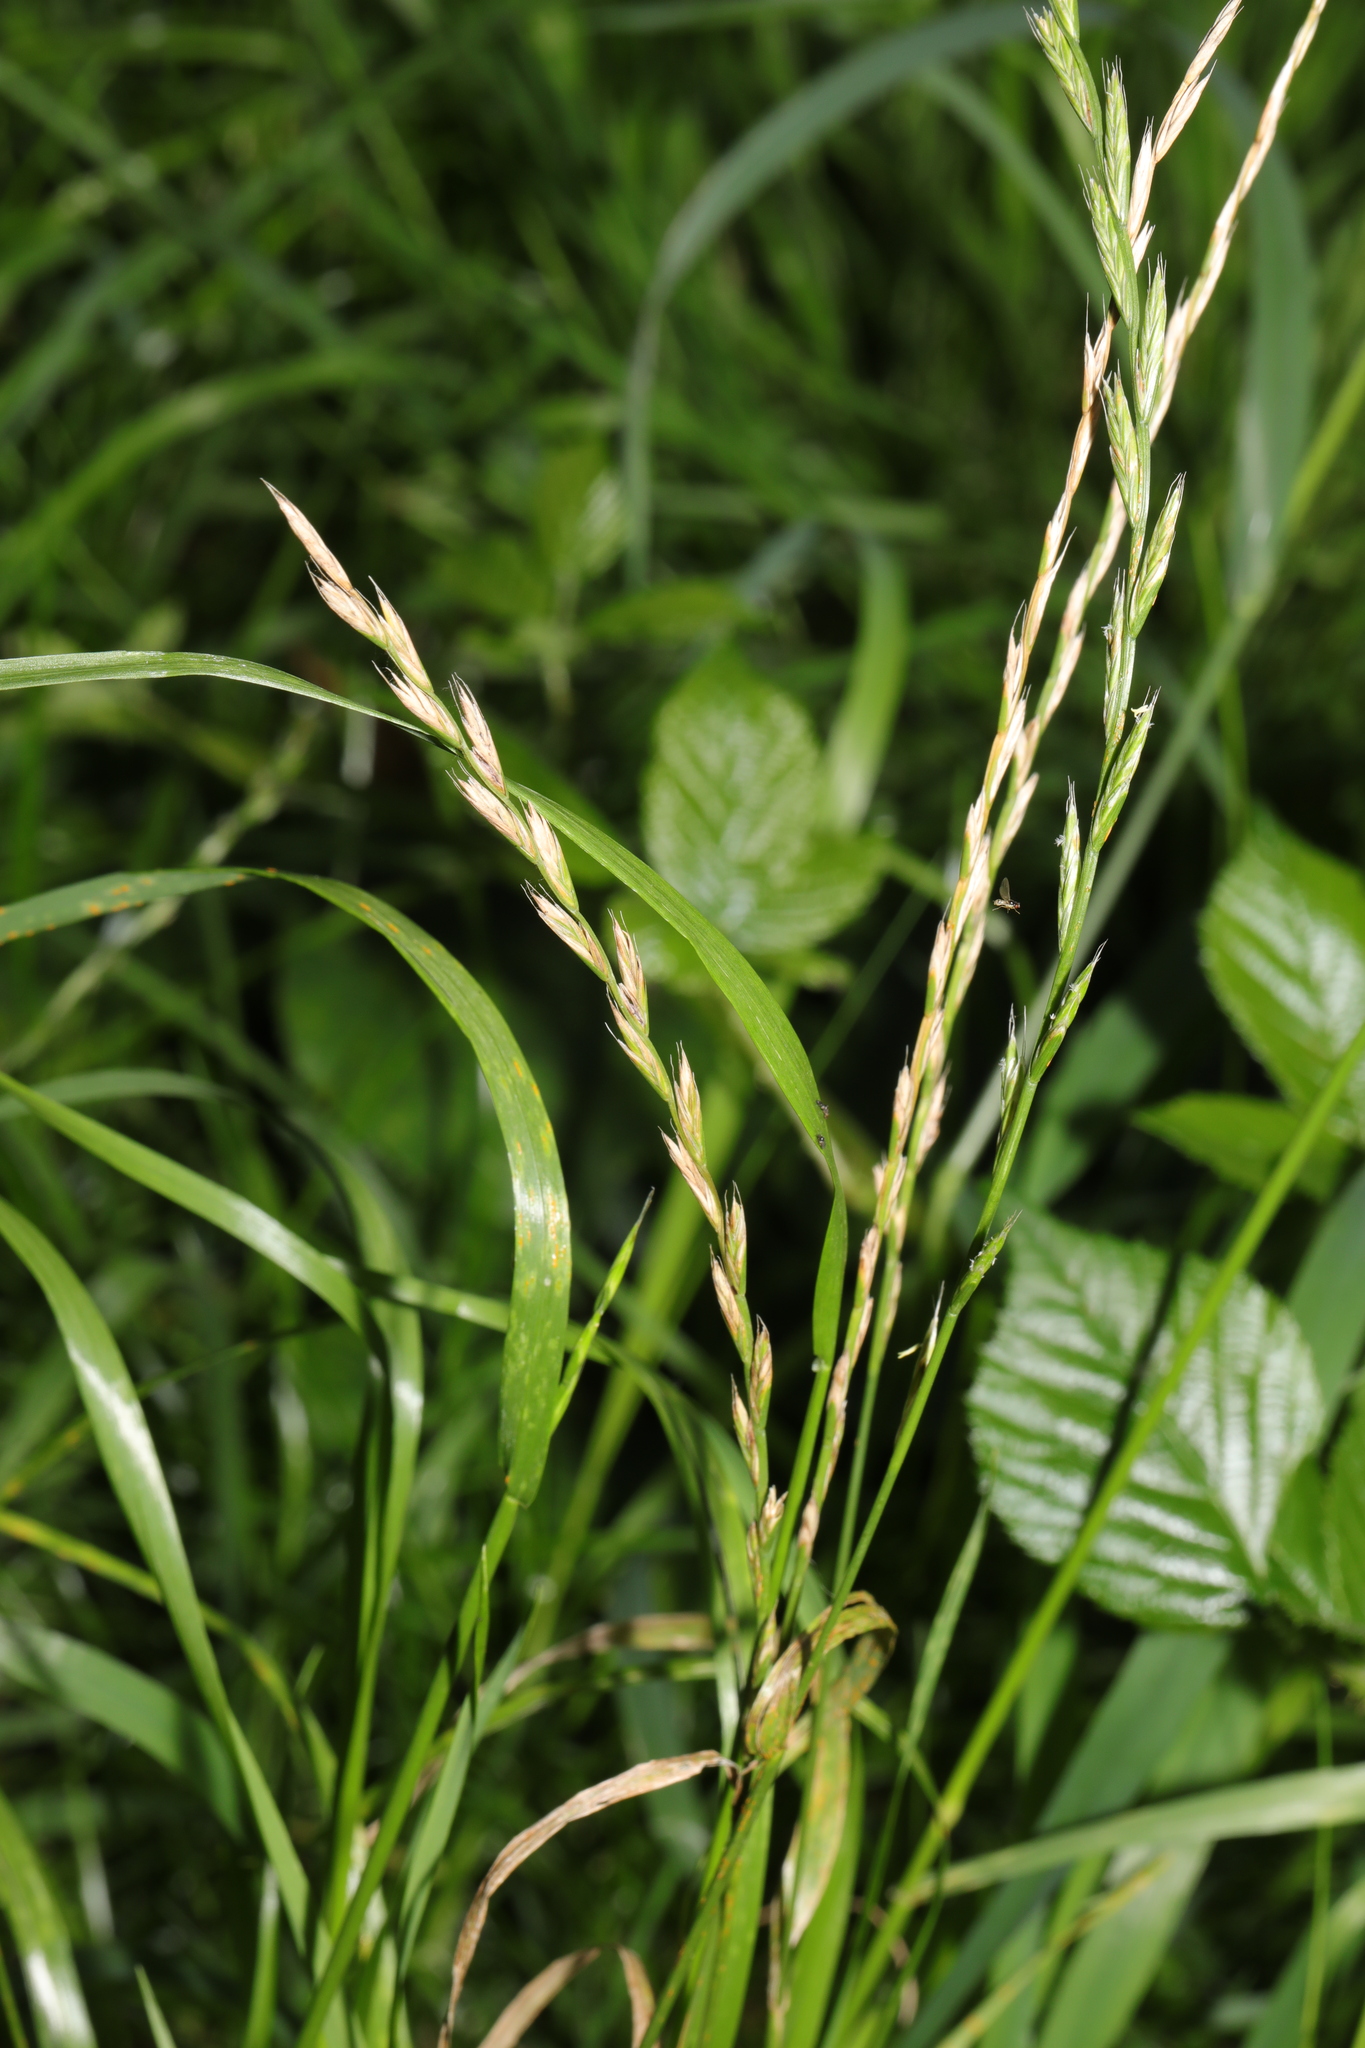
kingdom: Plantae
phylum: Tracheophyta
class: Liliopsida
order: Poales
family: Poaceae
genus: Lolium
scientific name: Lolium multiflorum
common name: Annual ryegrass
